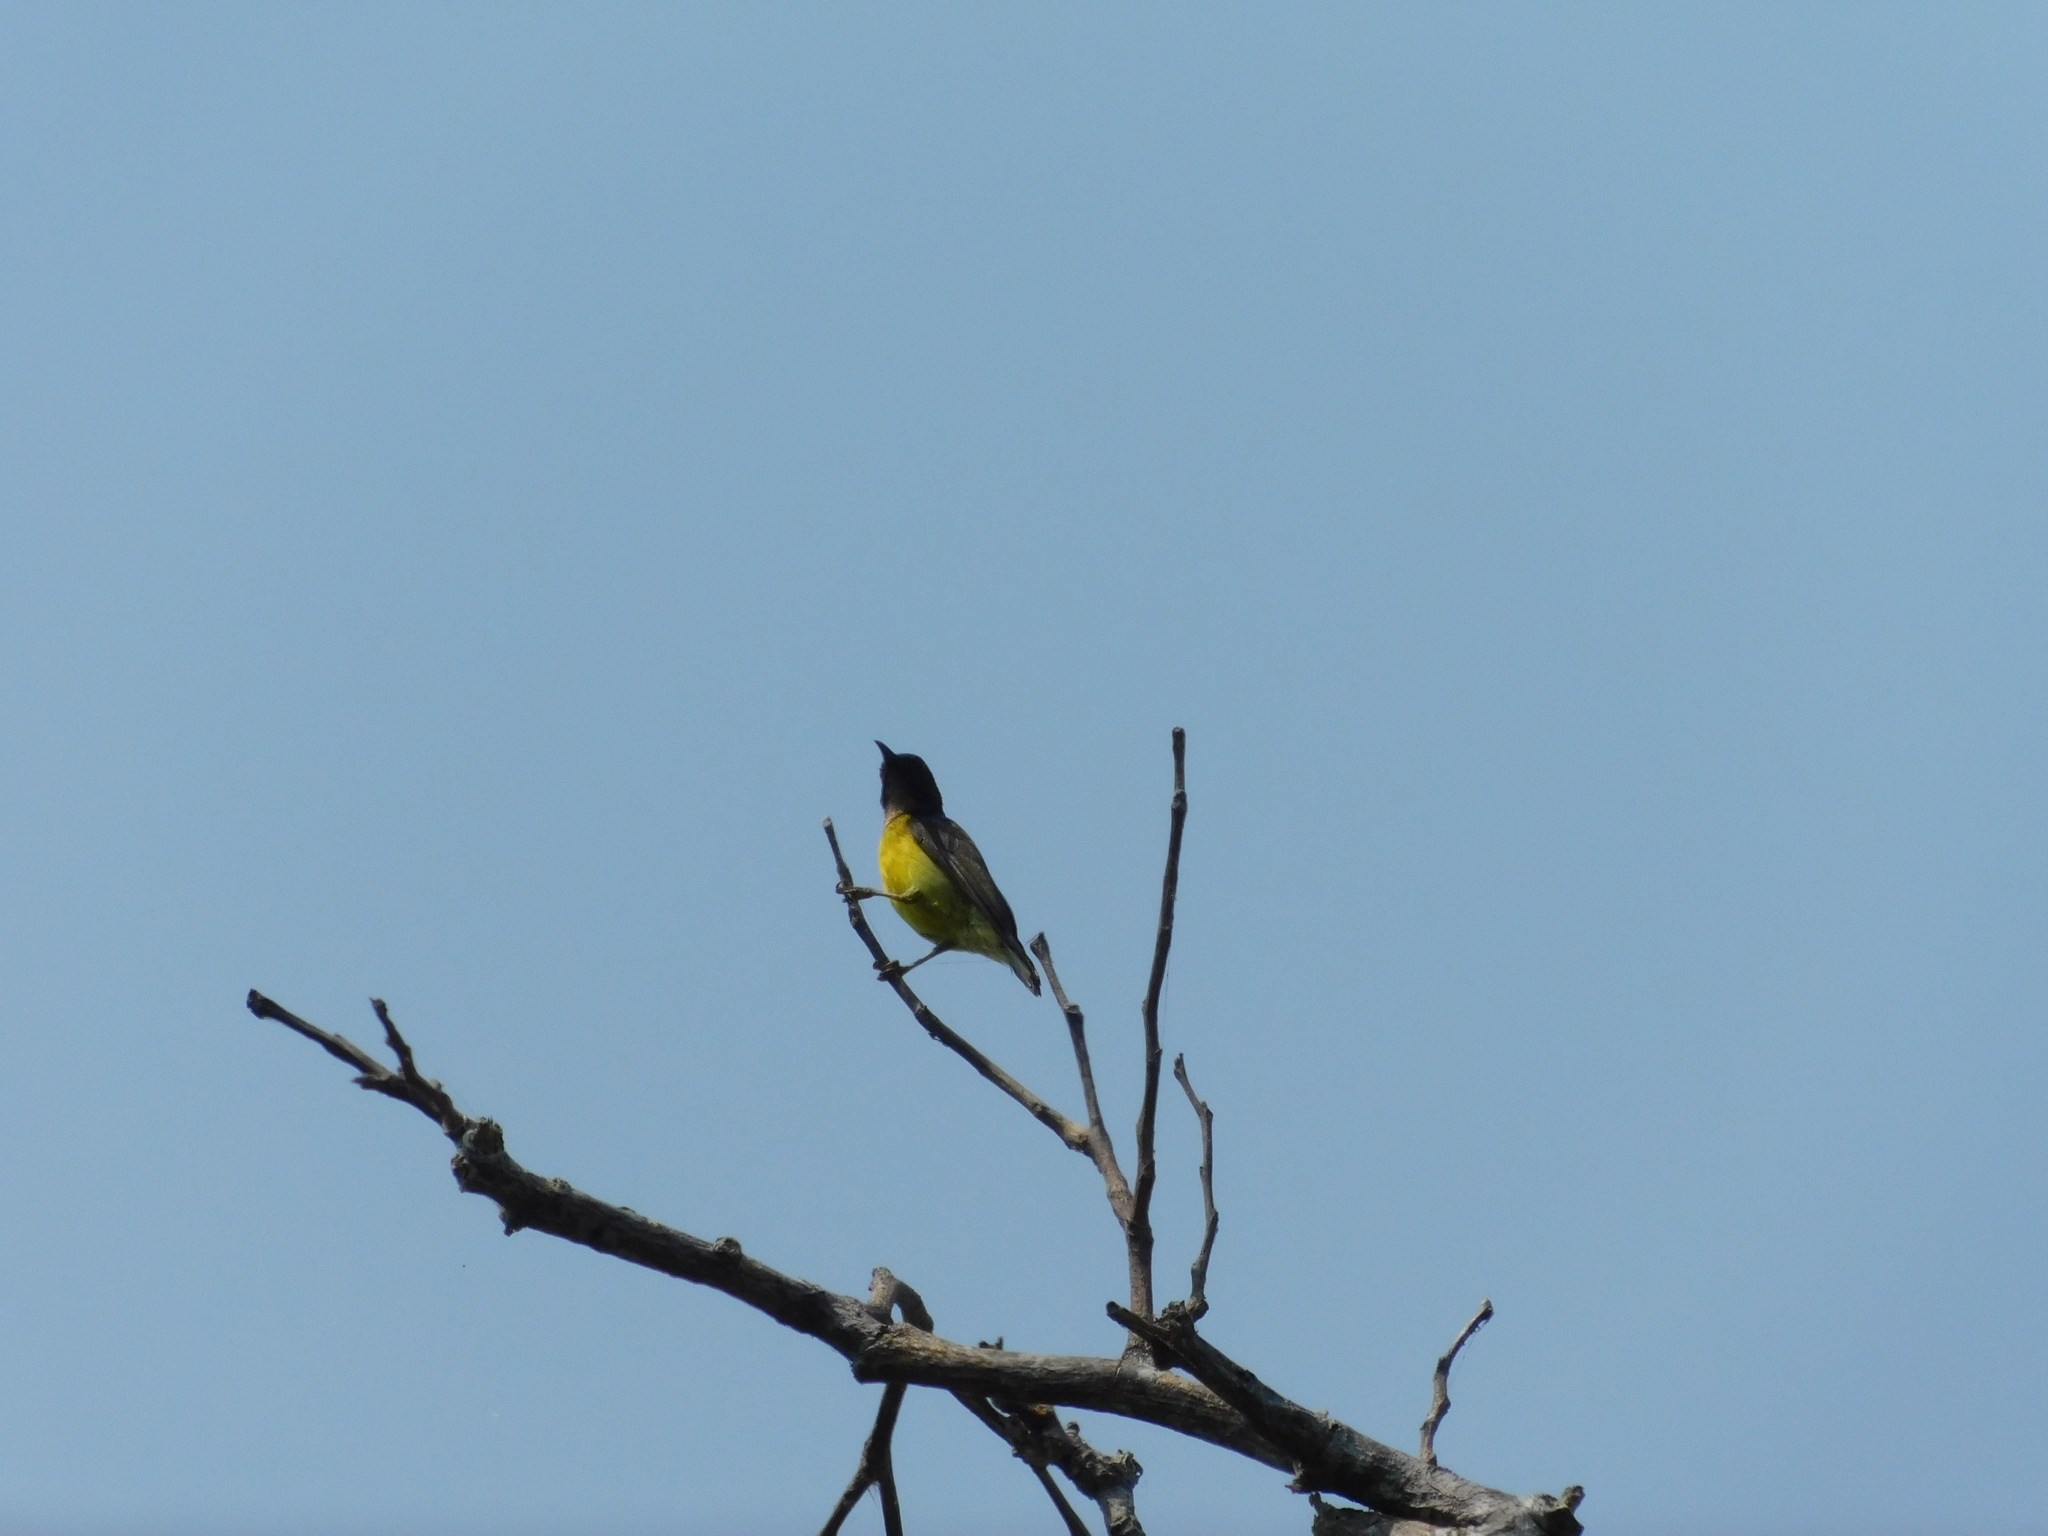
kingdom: Animalia
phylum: Chordata
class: Aves
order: Passeriformes
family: Nectariniidae
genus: Anthreptes
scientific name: Anthreptes malacensis
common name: Brown-throated sunbird
